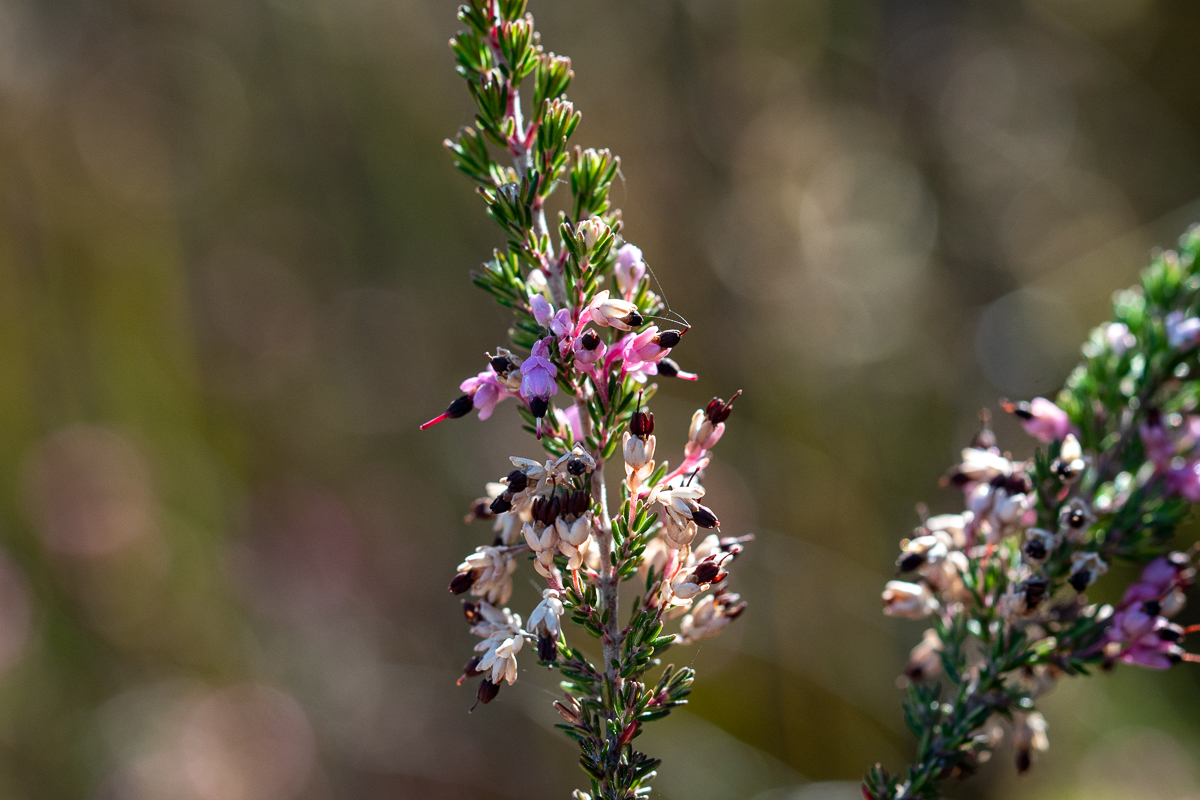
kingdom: Plantae
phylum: Tracheophyta
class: Magnoliopsida
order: Ericales
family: Ericaceae
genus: Erica
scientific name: Erica placentiflora
